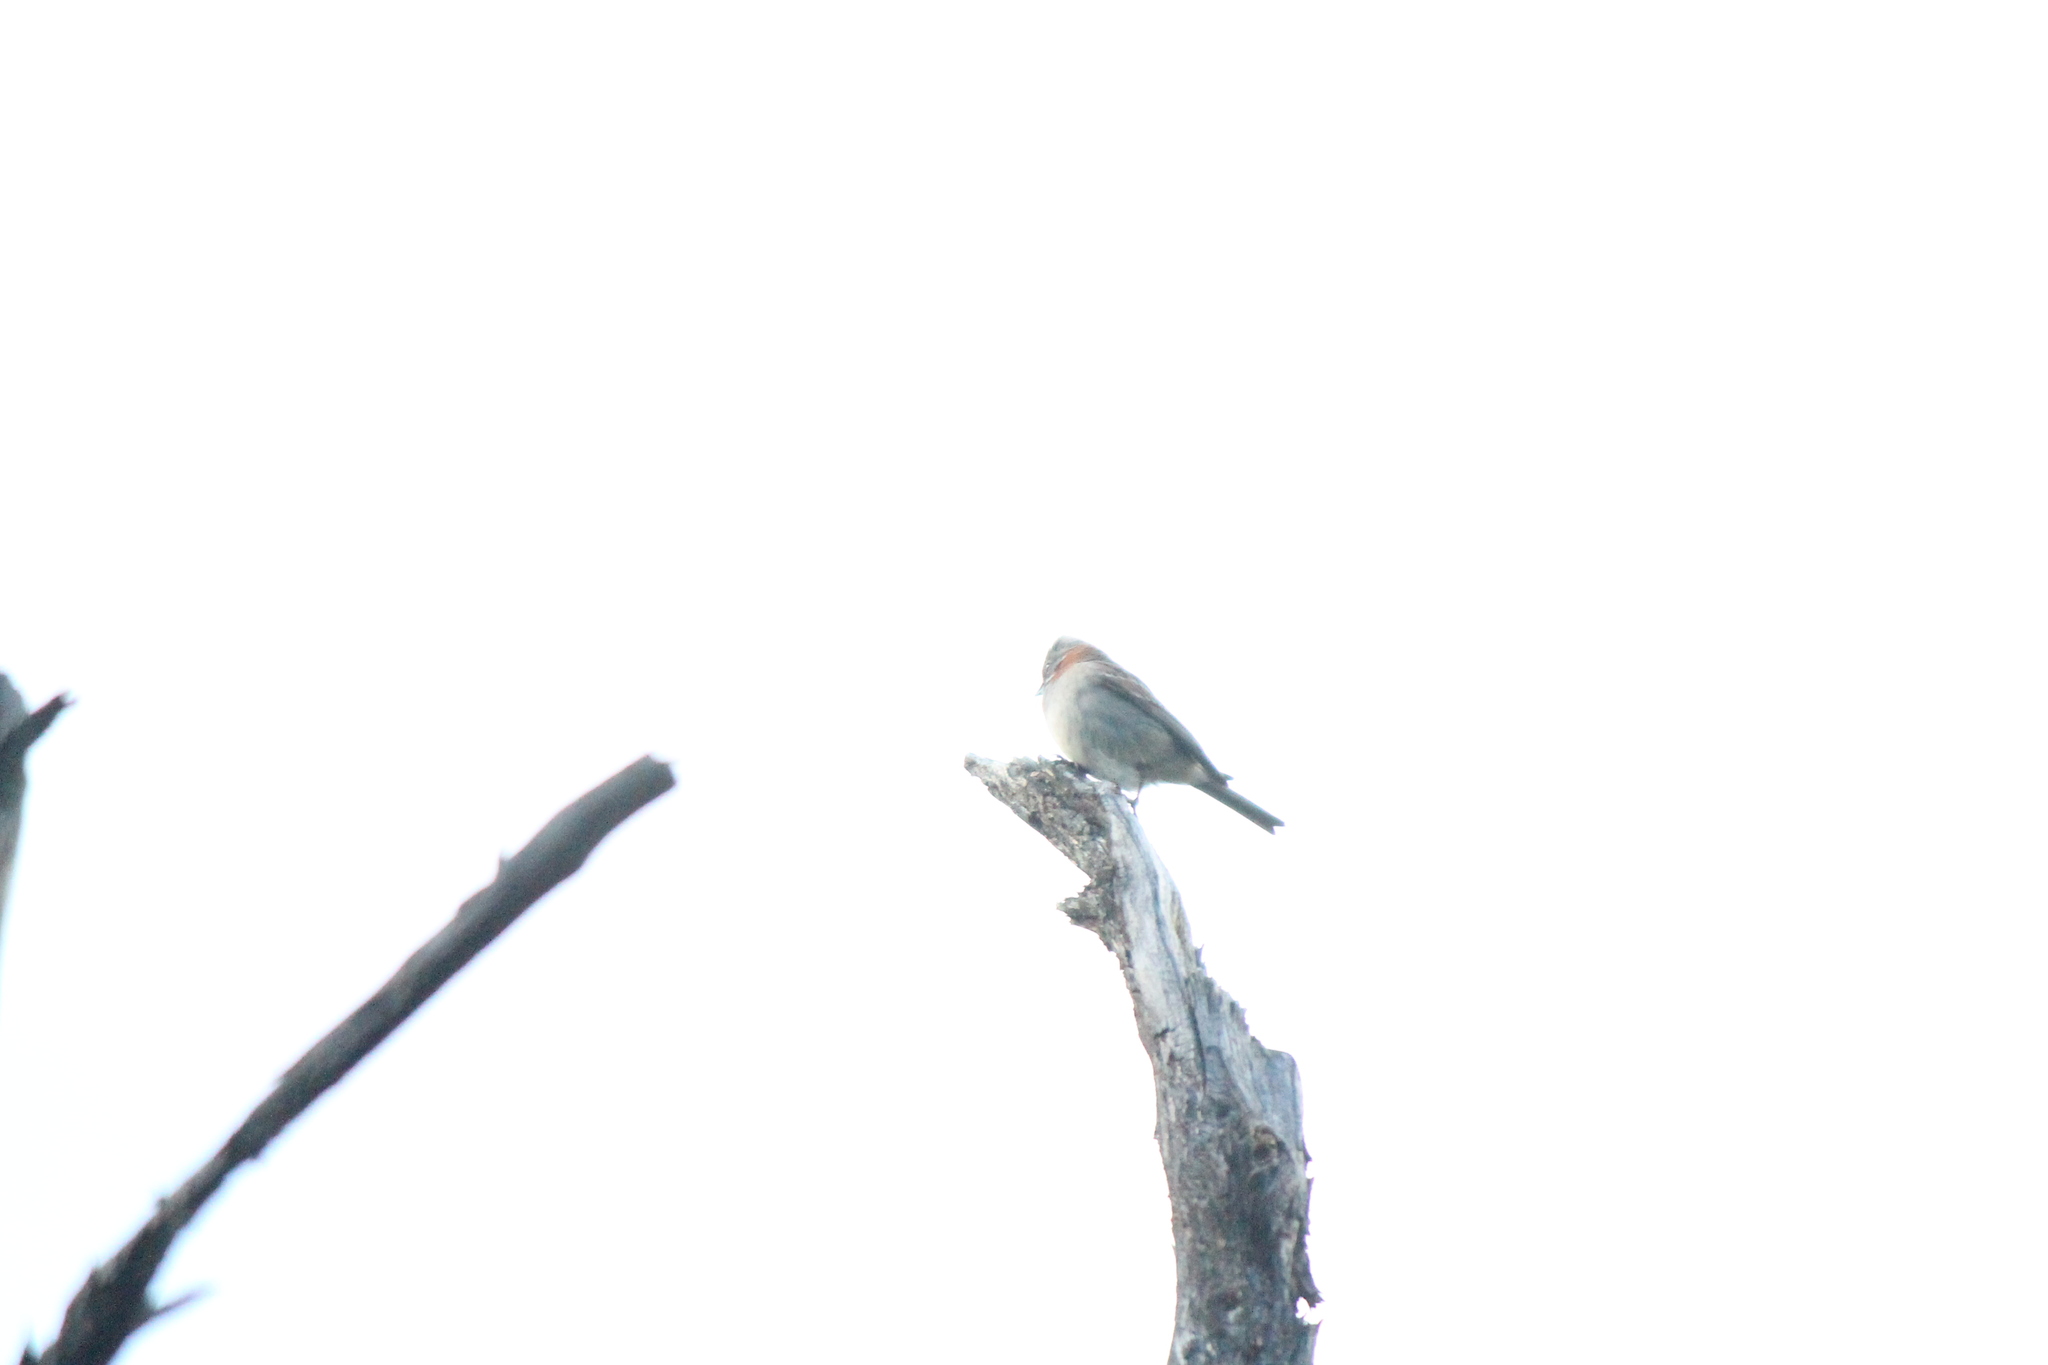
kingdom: Animalia
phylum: Chordata
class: Aves
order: Passeriformes
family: Passerellidae
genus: Zonotrichia
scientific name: Zonotrichia capensis
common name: Rufous-collared sparrow
